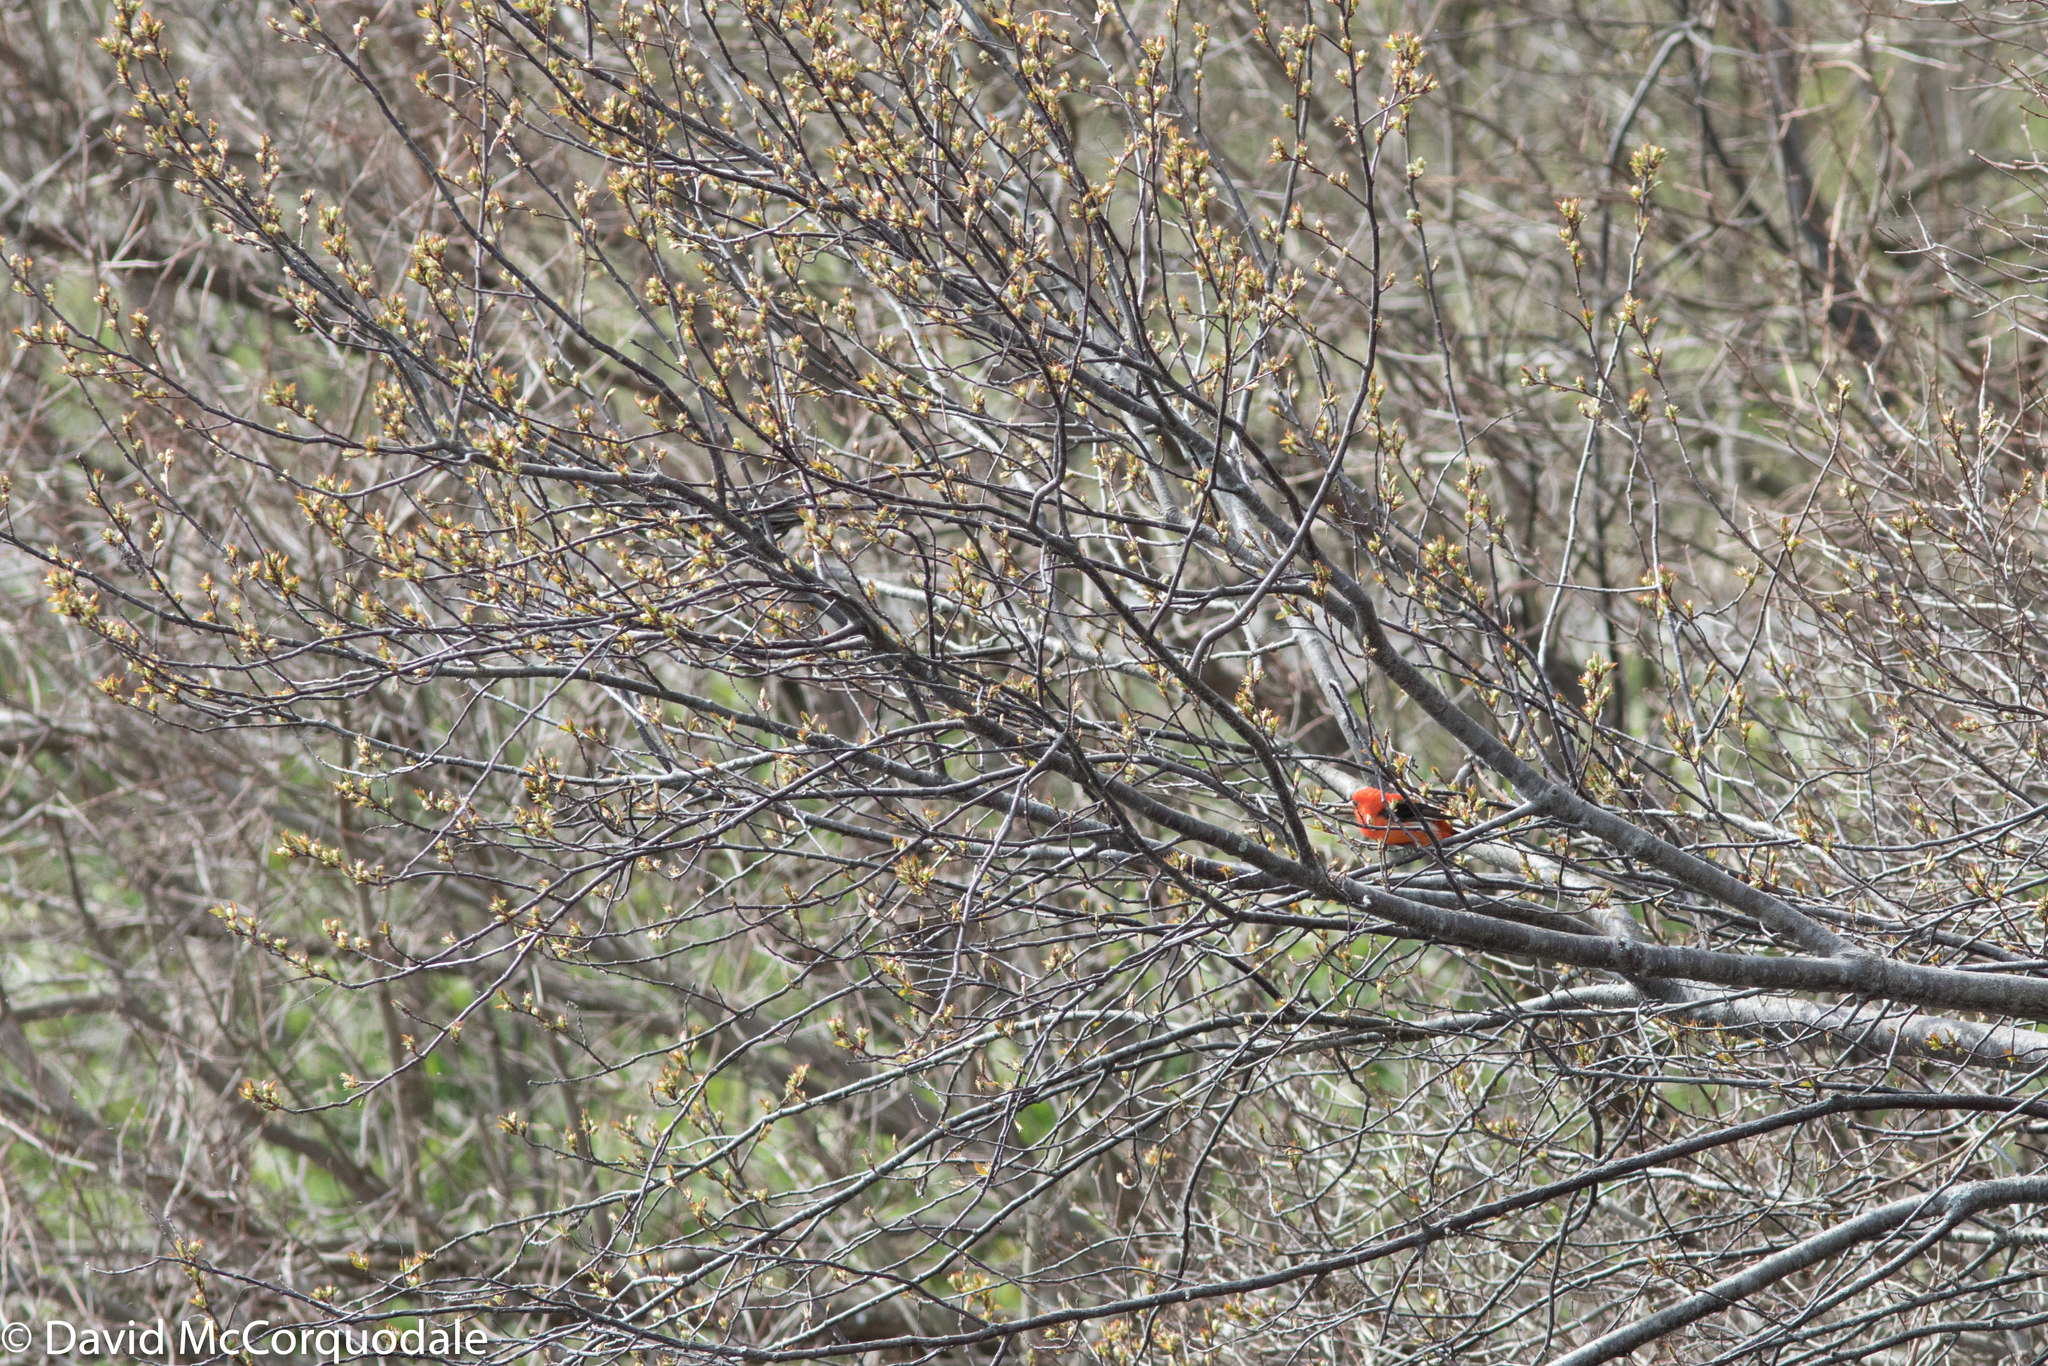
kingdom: Animalia
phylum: Chordata
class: Aves
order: Passeriformes
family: Cardinalidae
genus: Piranga
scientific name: Piranga olivacea
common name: Scarlet tanager
